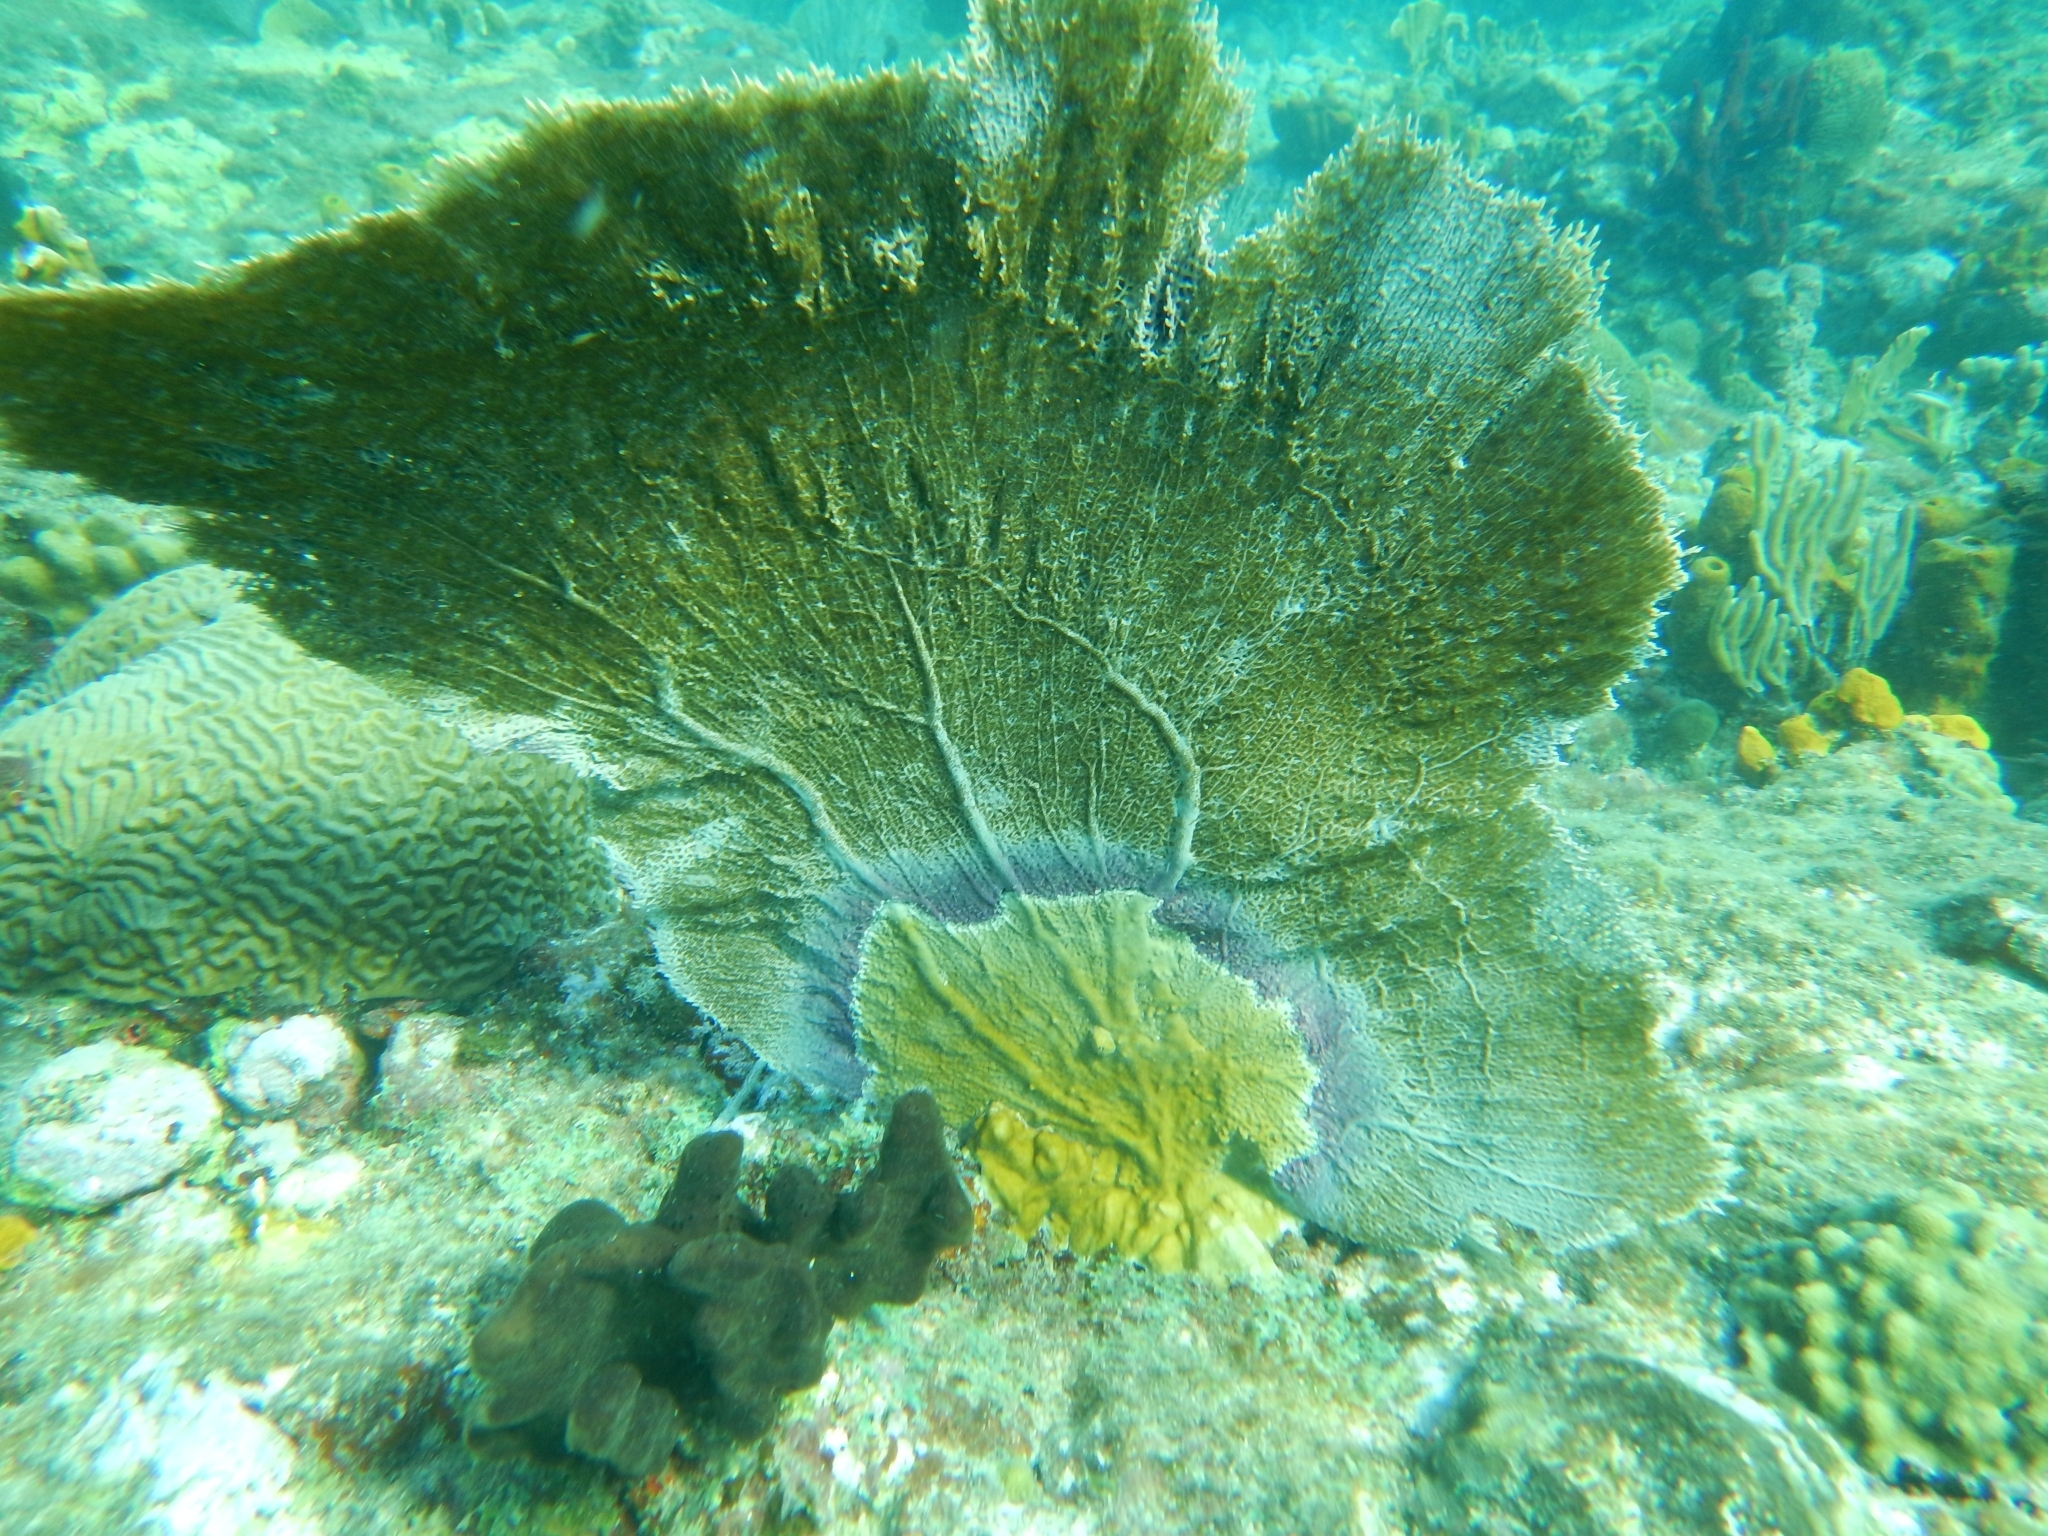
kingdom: Animalia
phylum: Cnidaria
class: Anthozoa
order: Malacalcyonacea
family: Gorgoniidae
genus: Gorgonia
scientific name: Gorgonia ventalina
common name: Common sea fan
